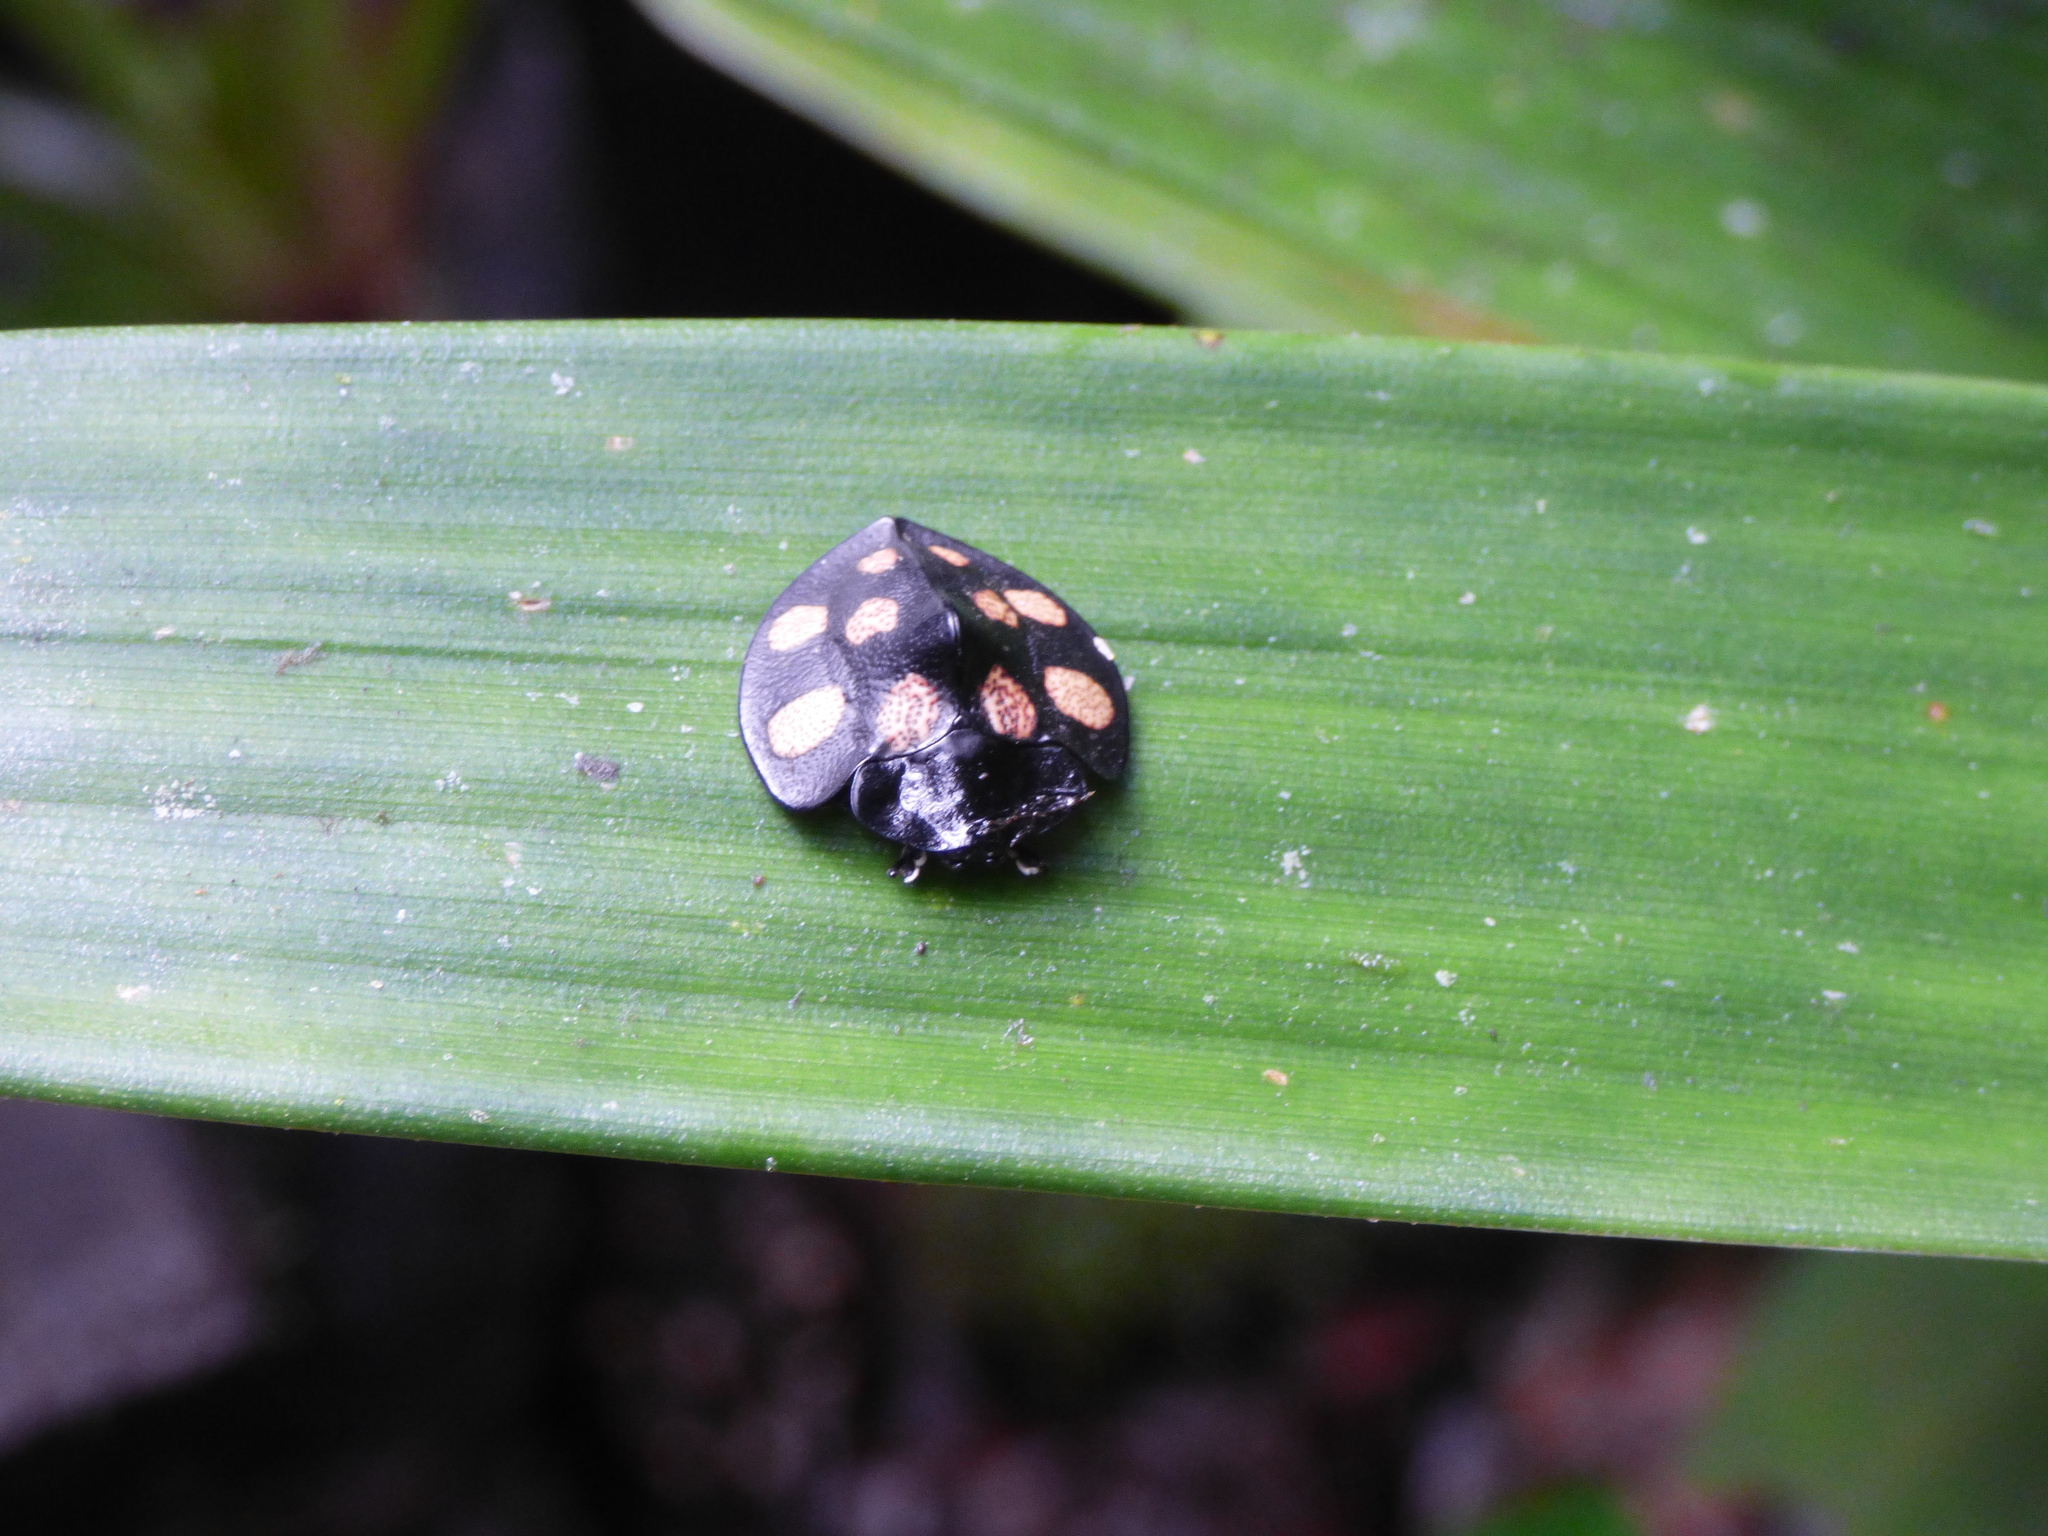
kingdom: Animalia
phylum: Arthropoda
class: Insecta
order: Coleoptera
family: Chrysomelidae
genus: Cyrtonota
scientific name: Cyrtonota
